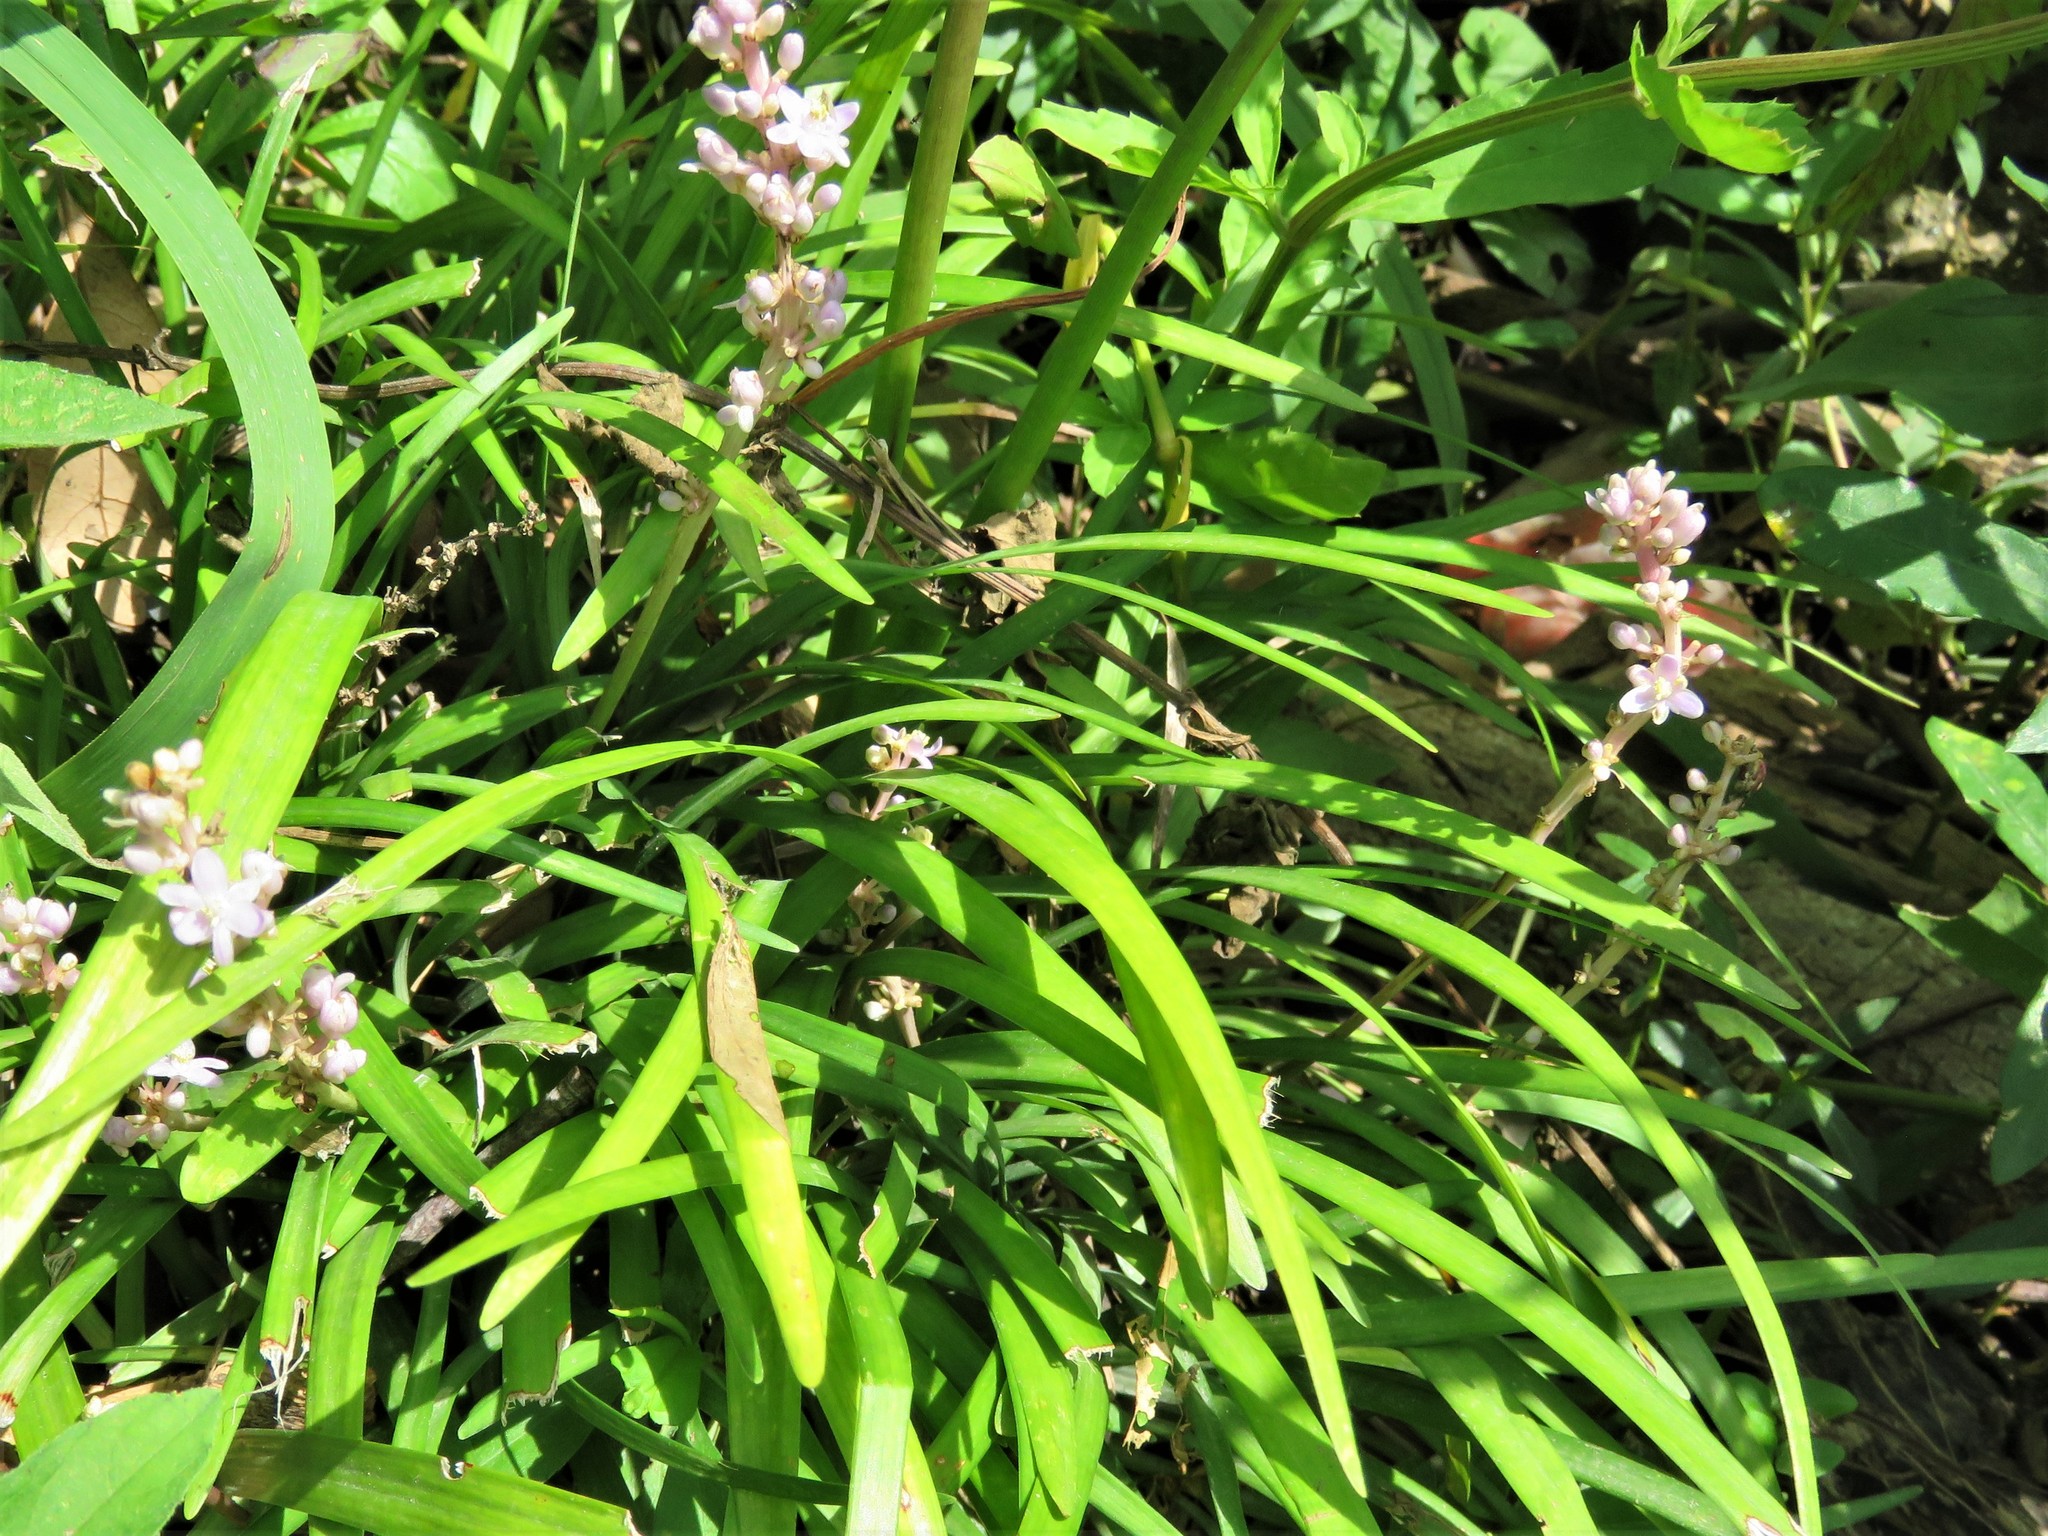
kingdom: Plantae
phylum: Tracheophyta
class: Liliopsida
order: Asparagales
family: Asparagaceae
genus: Liriope
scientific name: Liriope muscari
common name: Big blue lilyturf
